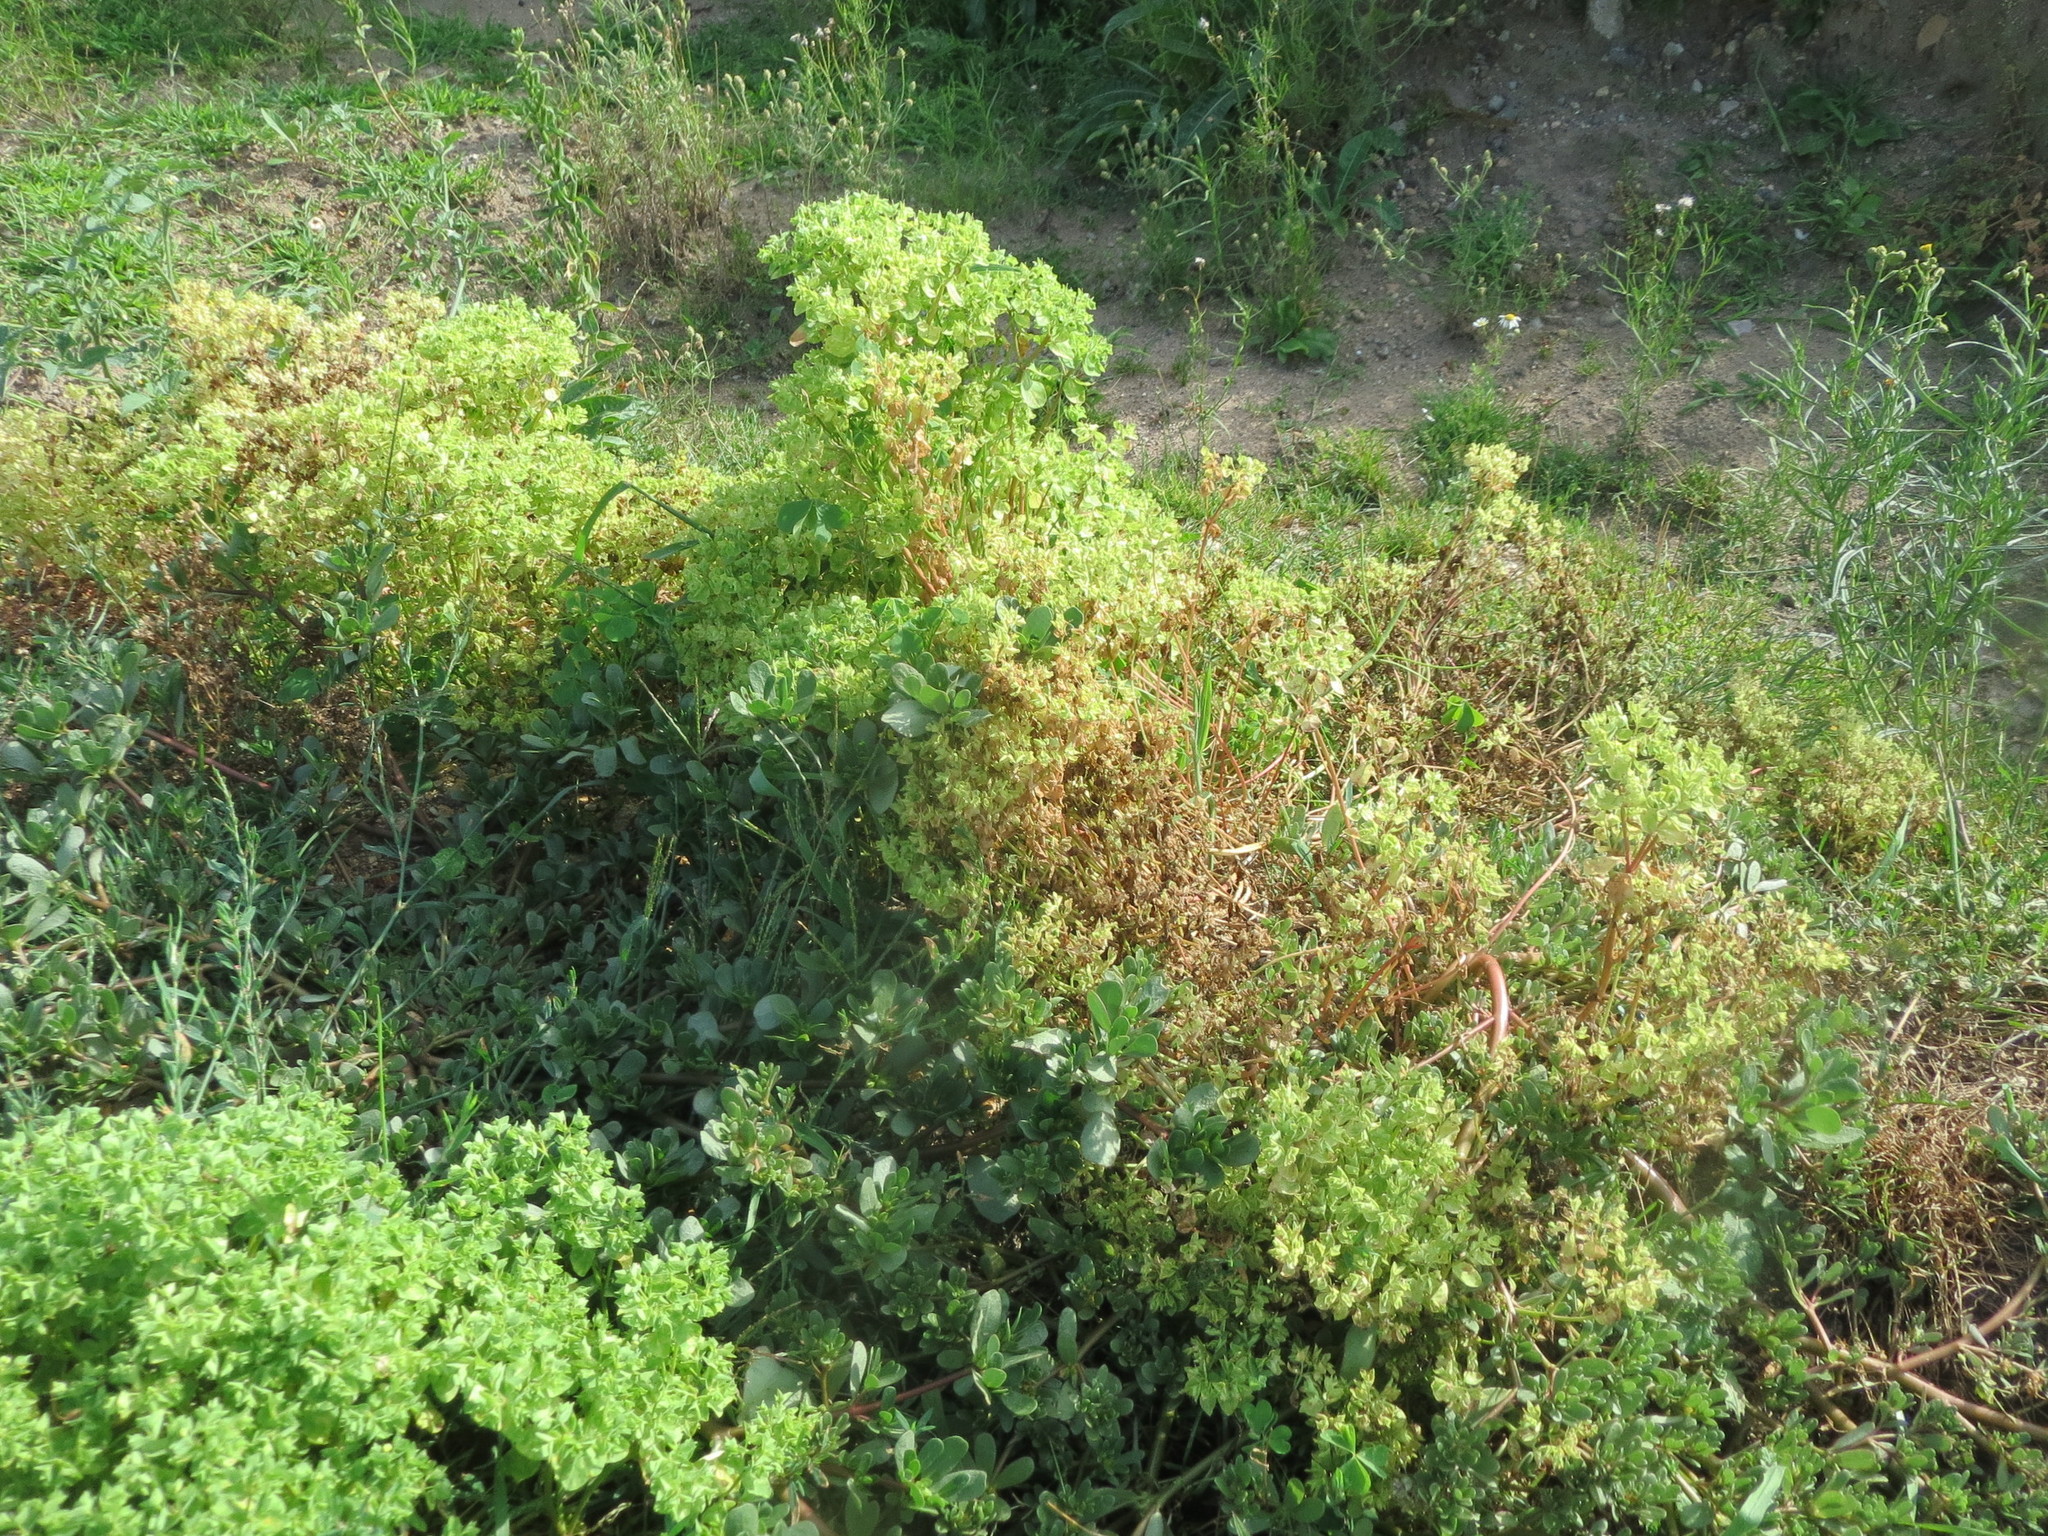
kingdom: Plantae
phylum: Tracheophyta
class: Magnoliopsida
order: Malpighiales
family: Euphorbiaceae
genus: Euphorbia
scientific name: Euphorbia peplus
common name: Petty spurge
